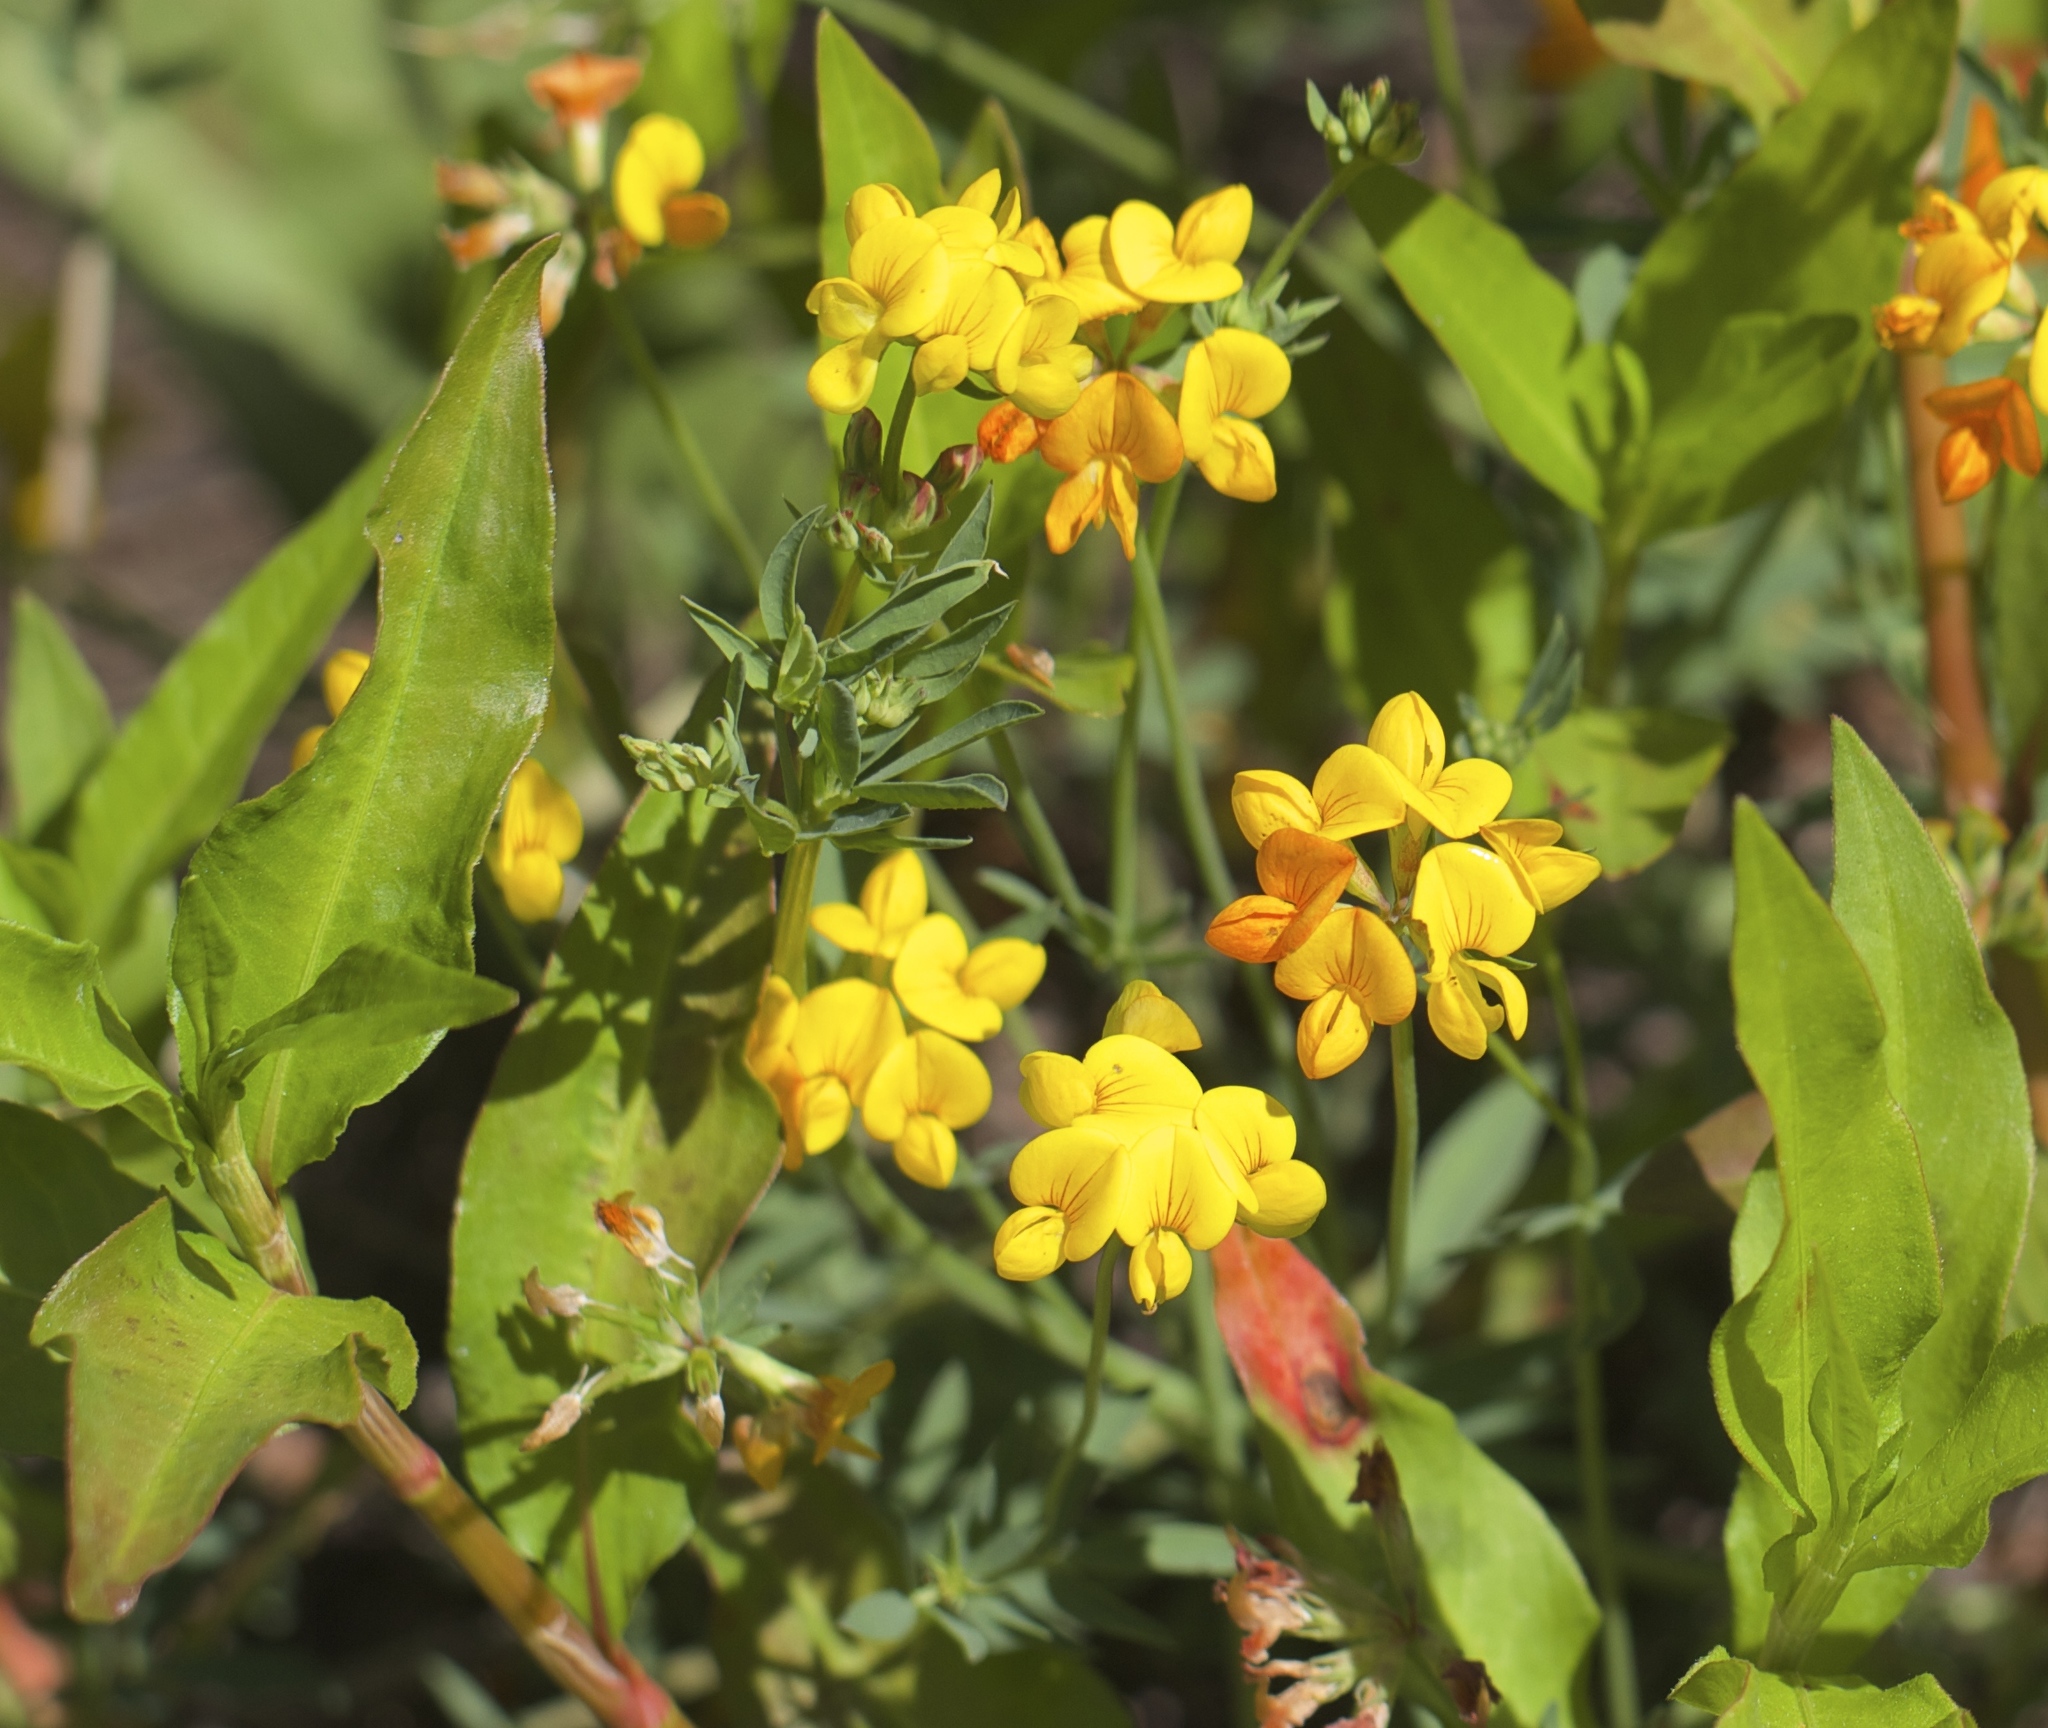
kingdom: Plantae
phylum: Tracheophyta
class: Magnoliopsida
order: Fabales
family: Fabaceae
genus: Lotus
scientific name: Lotus corniculatus
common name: Common bird's-foot-trefoil
